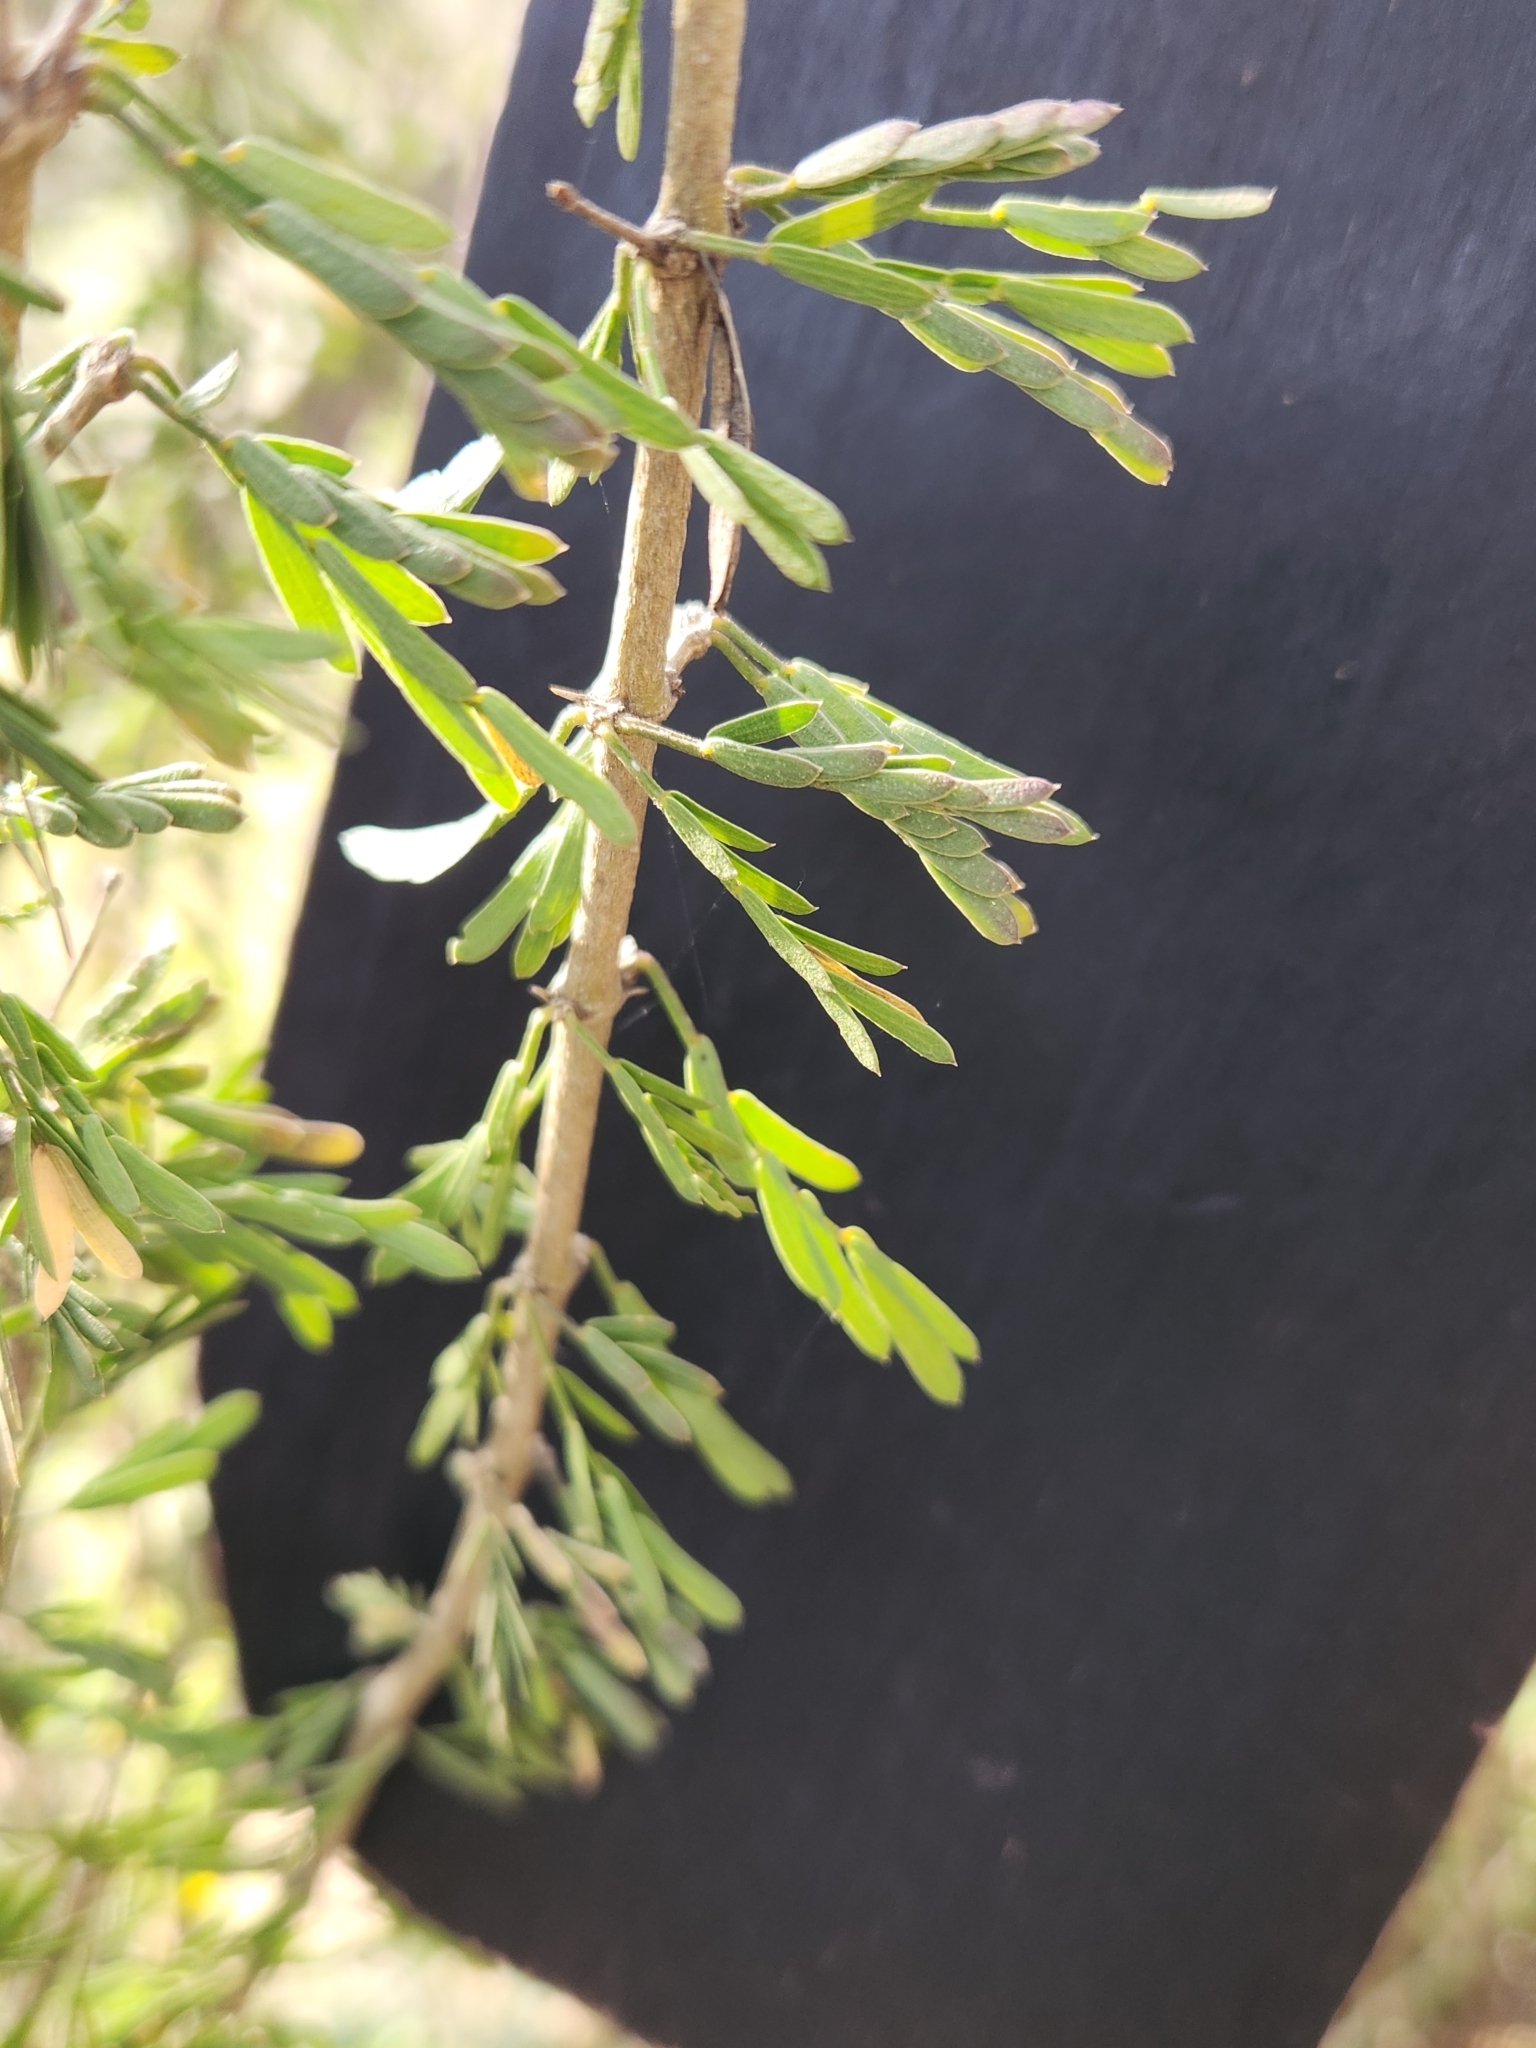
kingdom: Plantae
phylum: Tracheophyta
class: Magnoliopsida
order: Zygophyllales
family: Zygophyllaceae
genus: Porlieria
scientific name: Porlieria angustifolia
